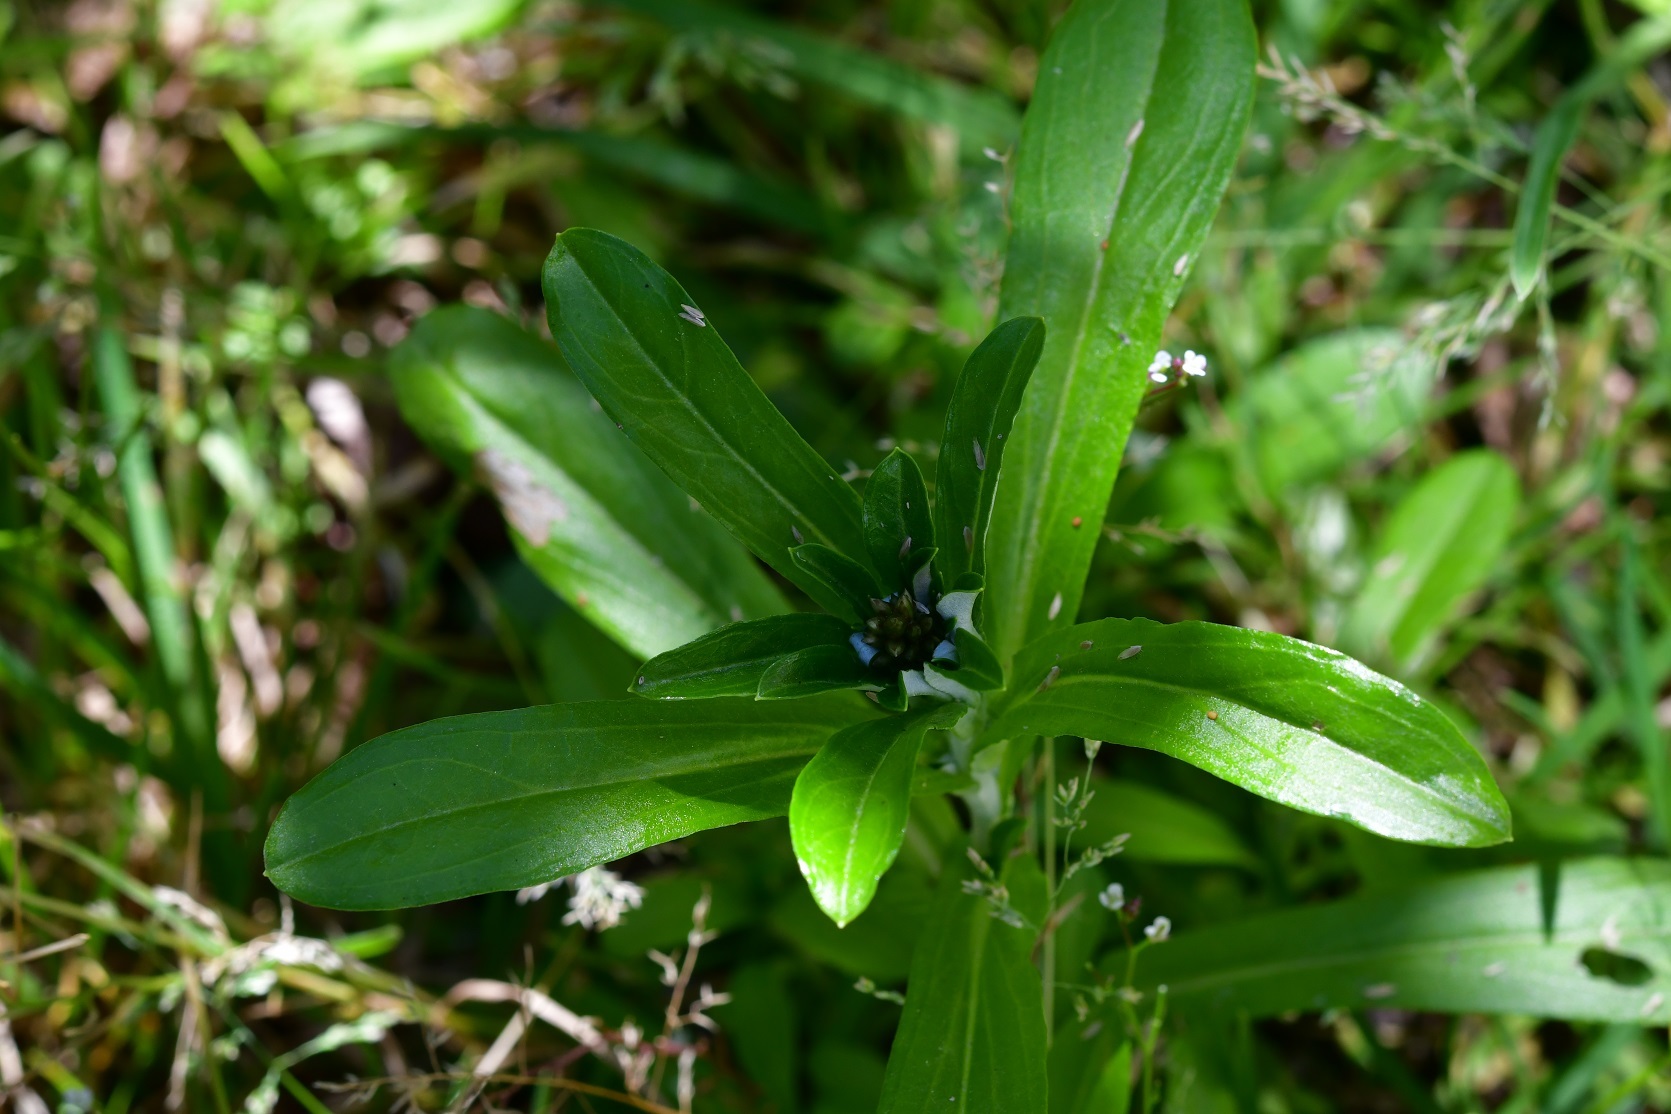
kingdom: Plantae
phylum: Tracheophyta
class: Magnoliopsida
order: Asterales
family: Asteraceae
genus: Gamochaeta
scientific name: Gamochaeta americana
